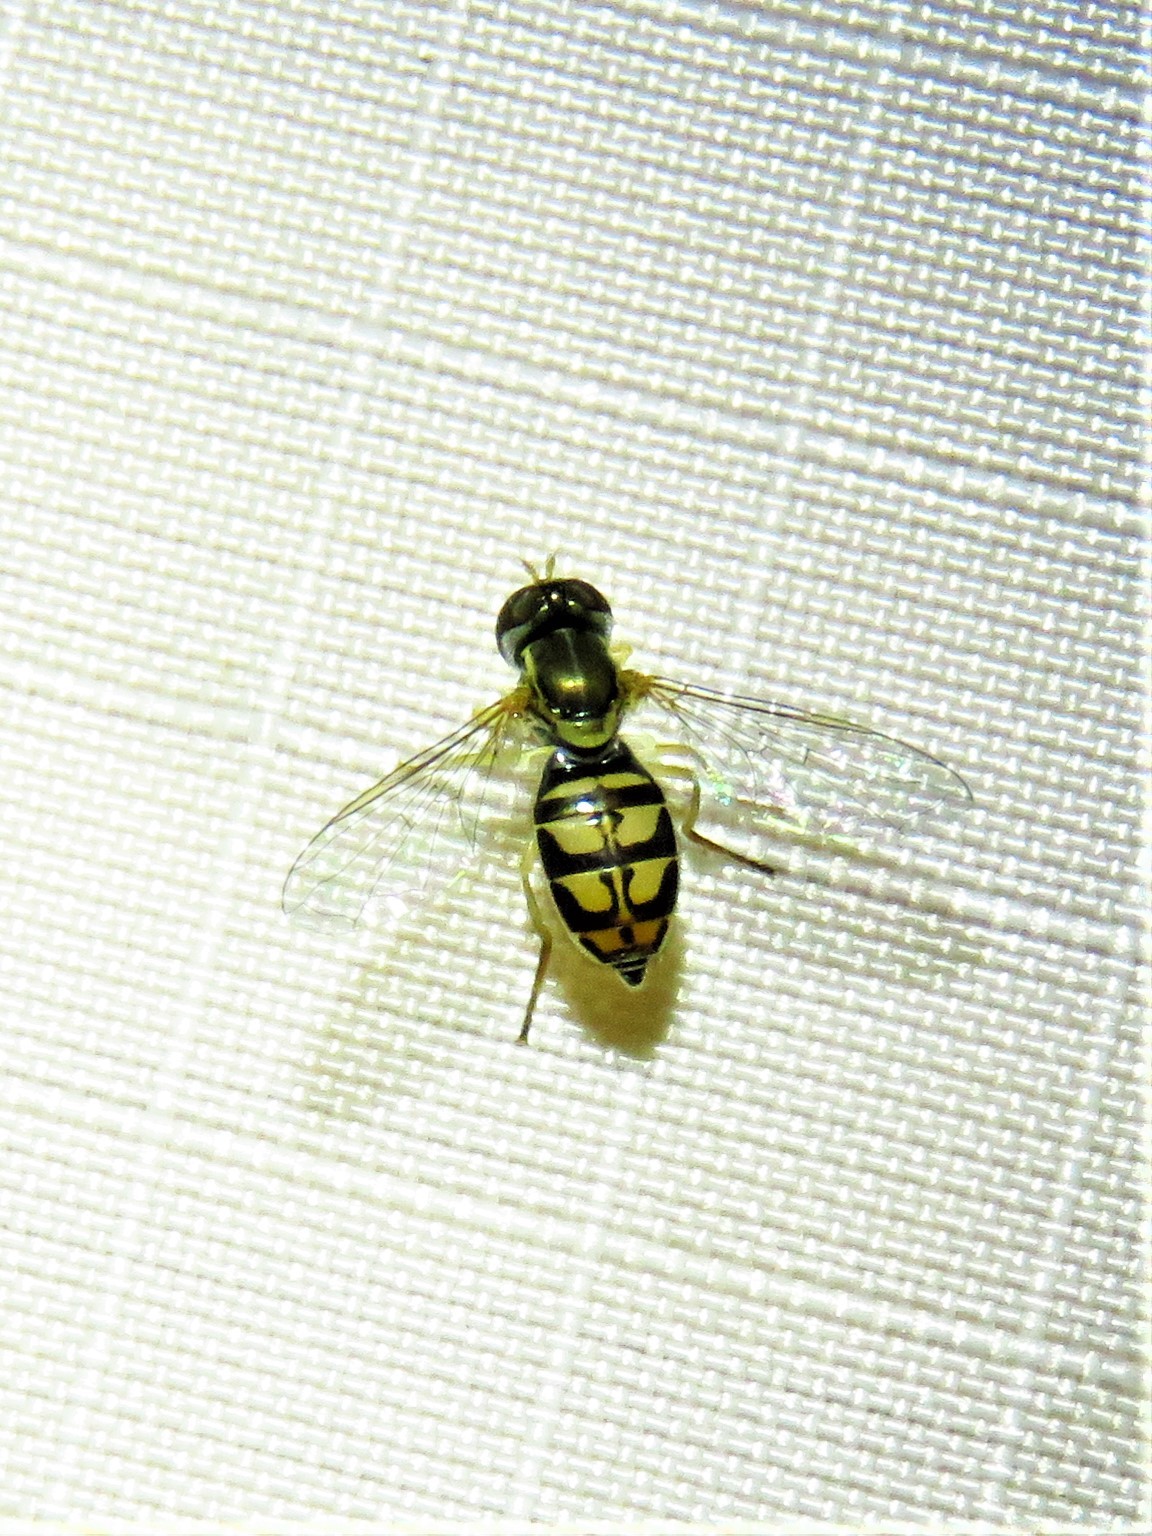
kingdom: Animalia
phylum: Arthropoda
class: Insecta
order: Diptera
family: Syrphidae
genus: Toxomerus
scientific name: Toxomerus marginatus
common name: Syrphid fly
